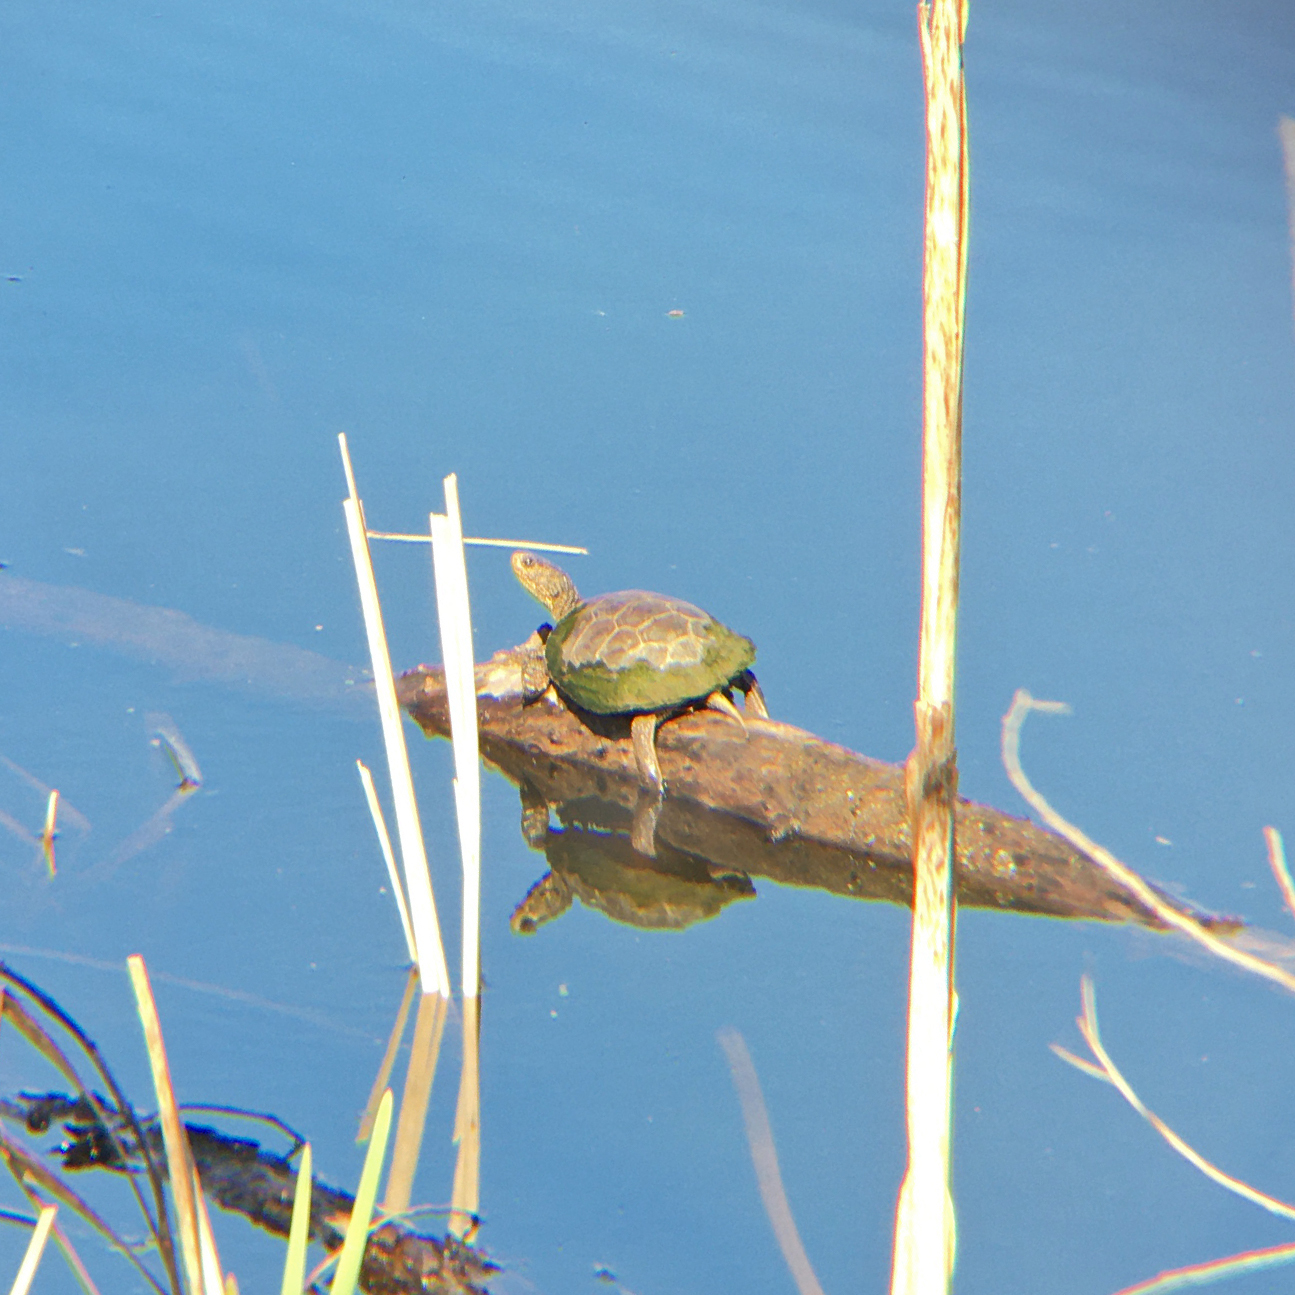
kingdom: Animalia
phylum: Chordata
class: Testudines
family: Emydidae
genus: Actinemys
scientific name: Actinemys marmorata
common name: Western pond turtle
